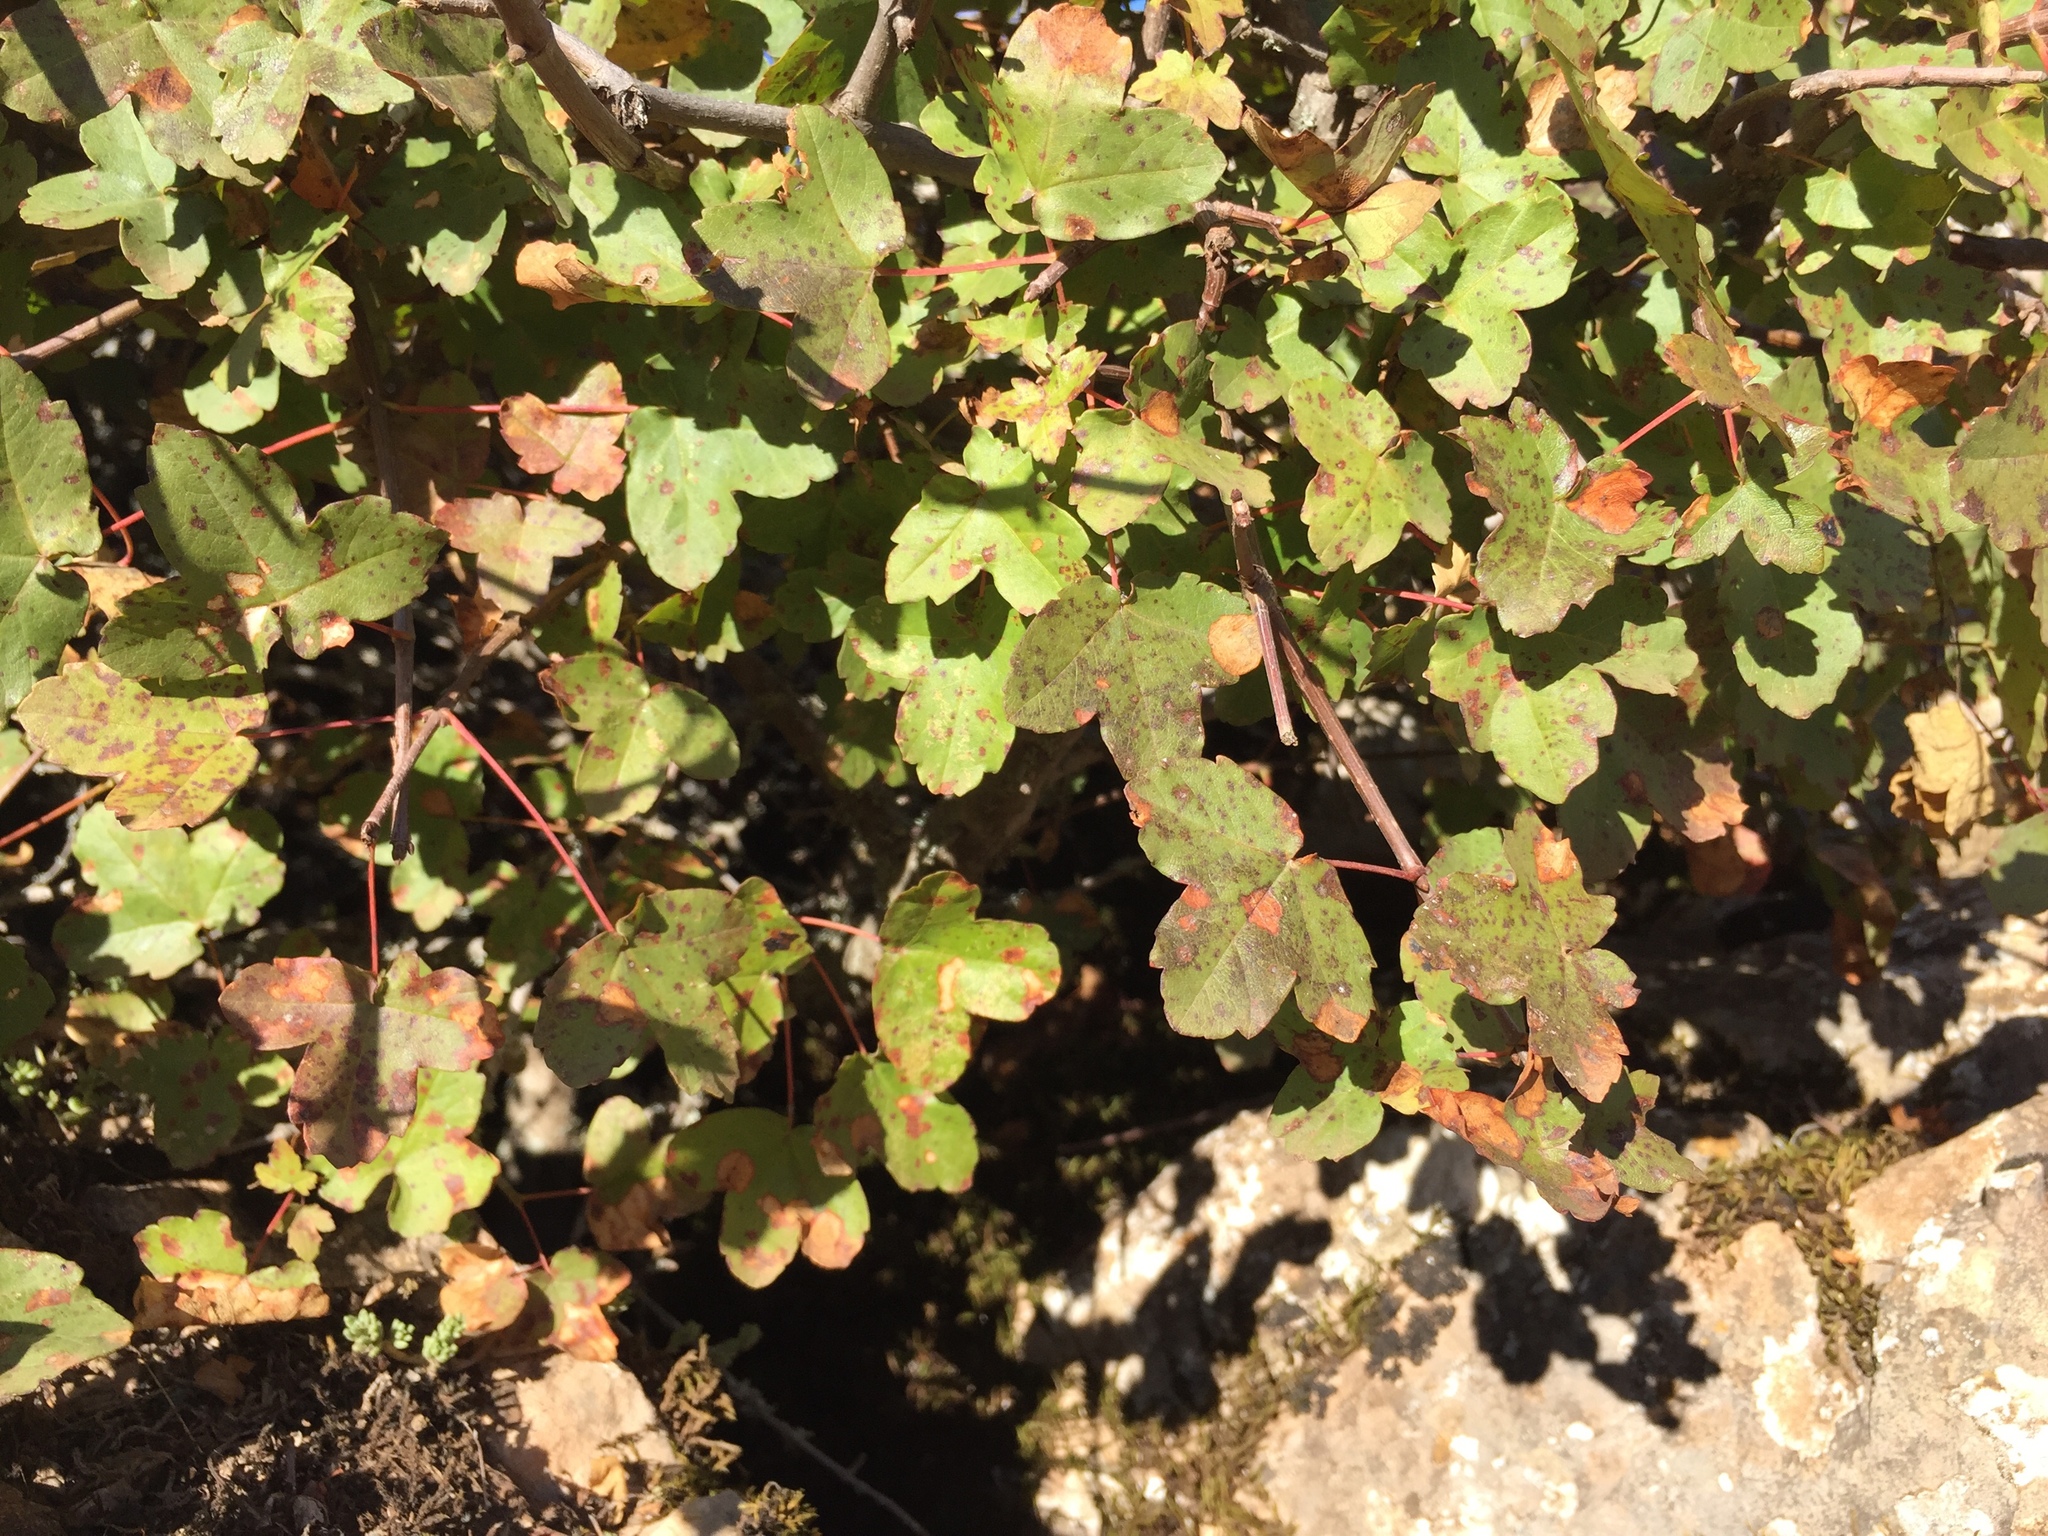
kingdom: Plantae
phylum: Tracheophyta
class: Magnoliopsida
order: Sapindales
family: Sapindaceae
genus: Acer
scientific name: Acer monspessulanum
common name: Montpellier maple
